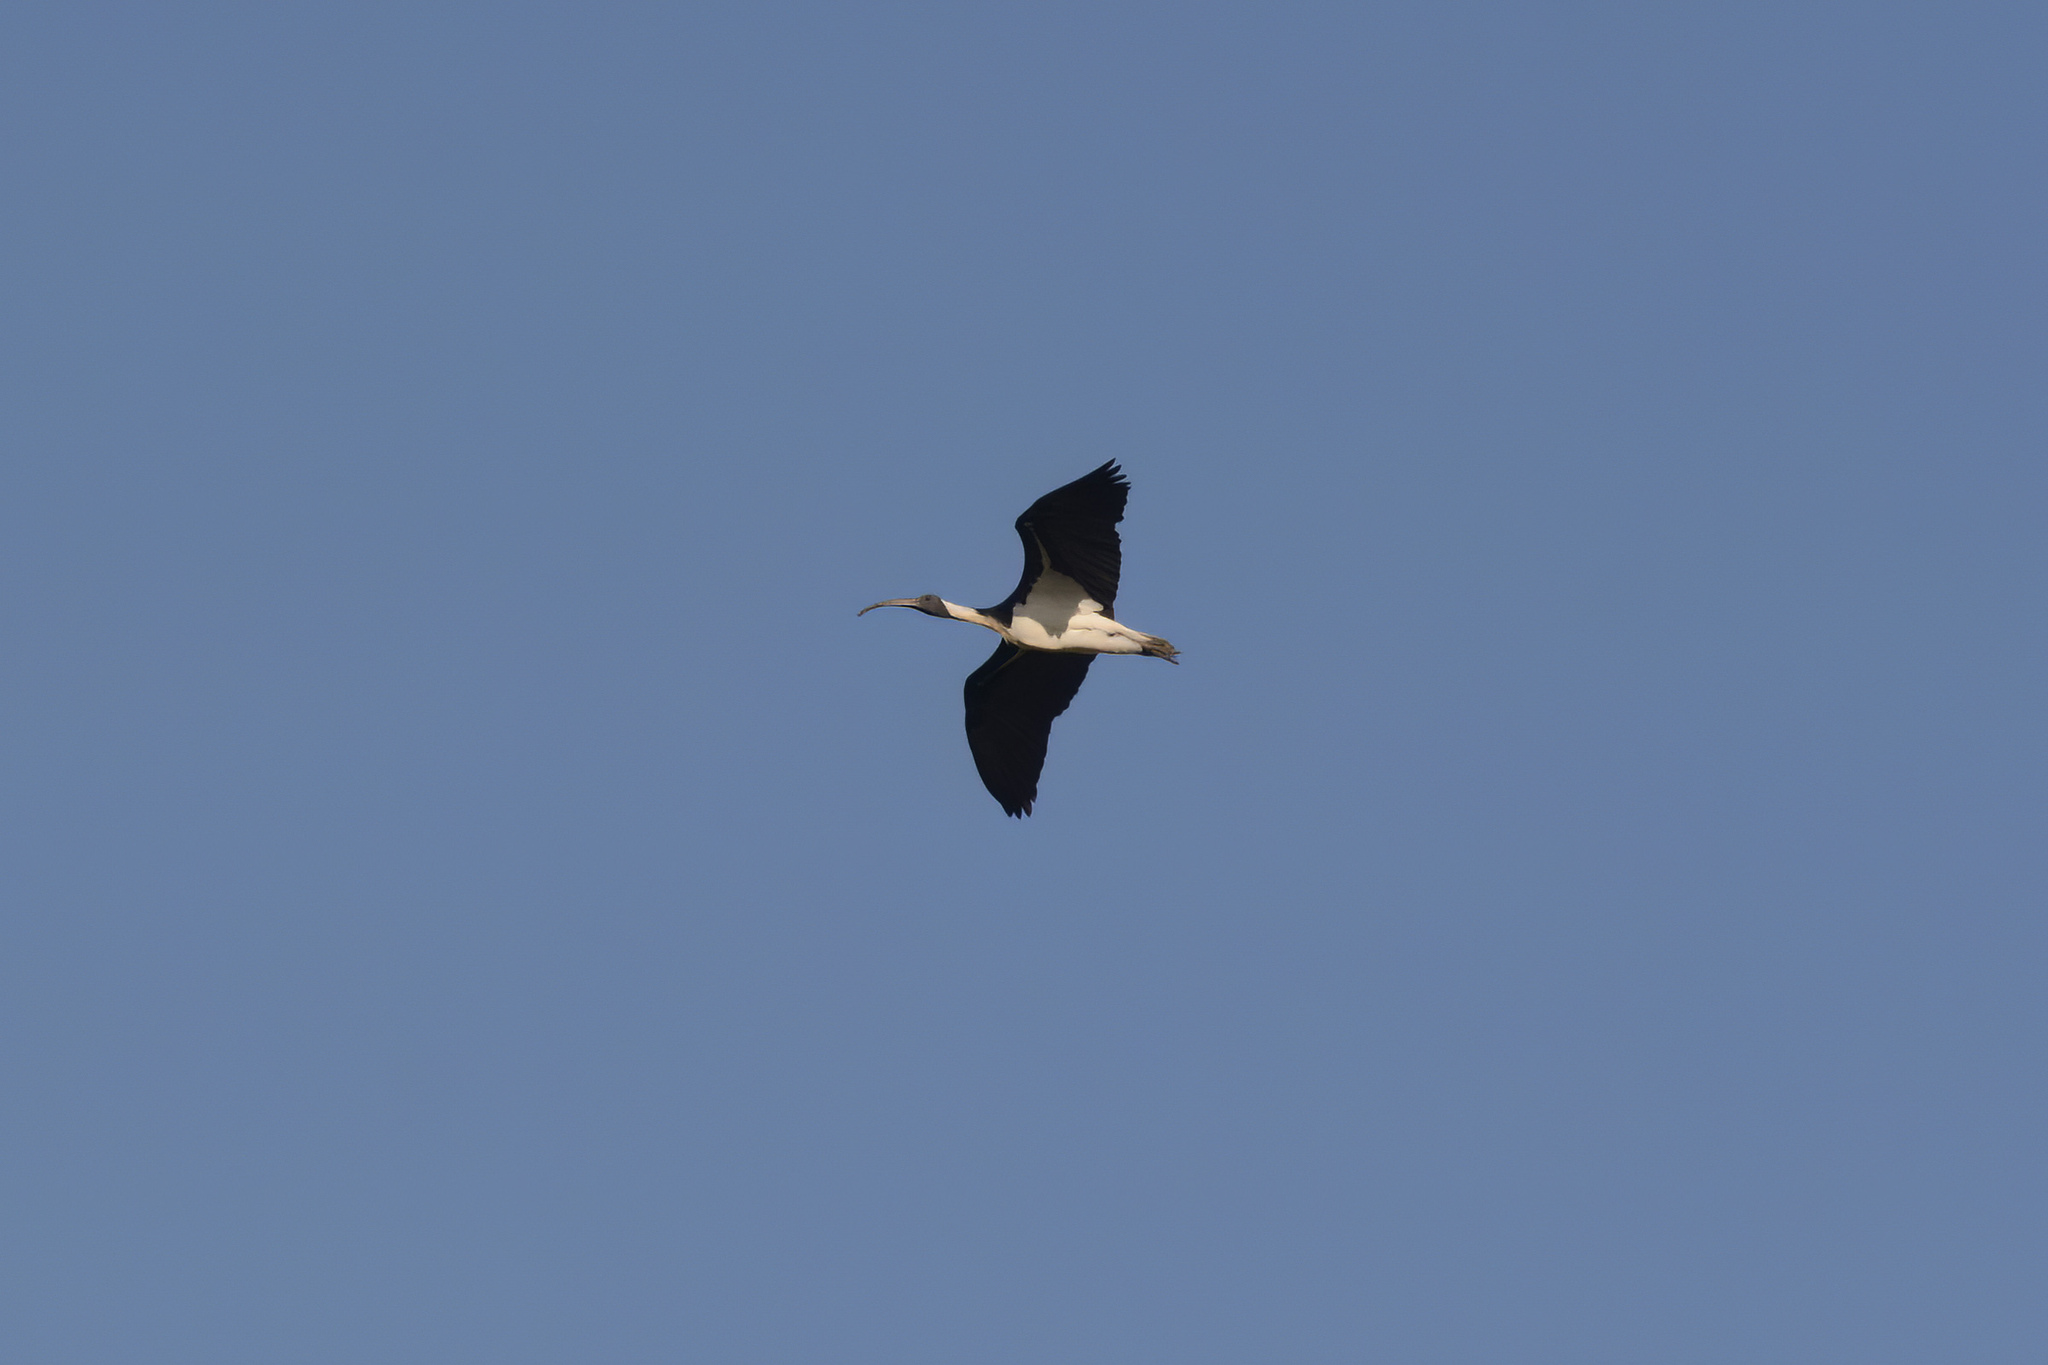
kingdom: Animalia
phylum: Chordata
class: Aves
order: Pelecaniformes
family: Threskiornithidae
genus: Threskiornis
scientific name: Threskiornis spinicollis
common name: Straw-necked ibis
